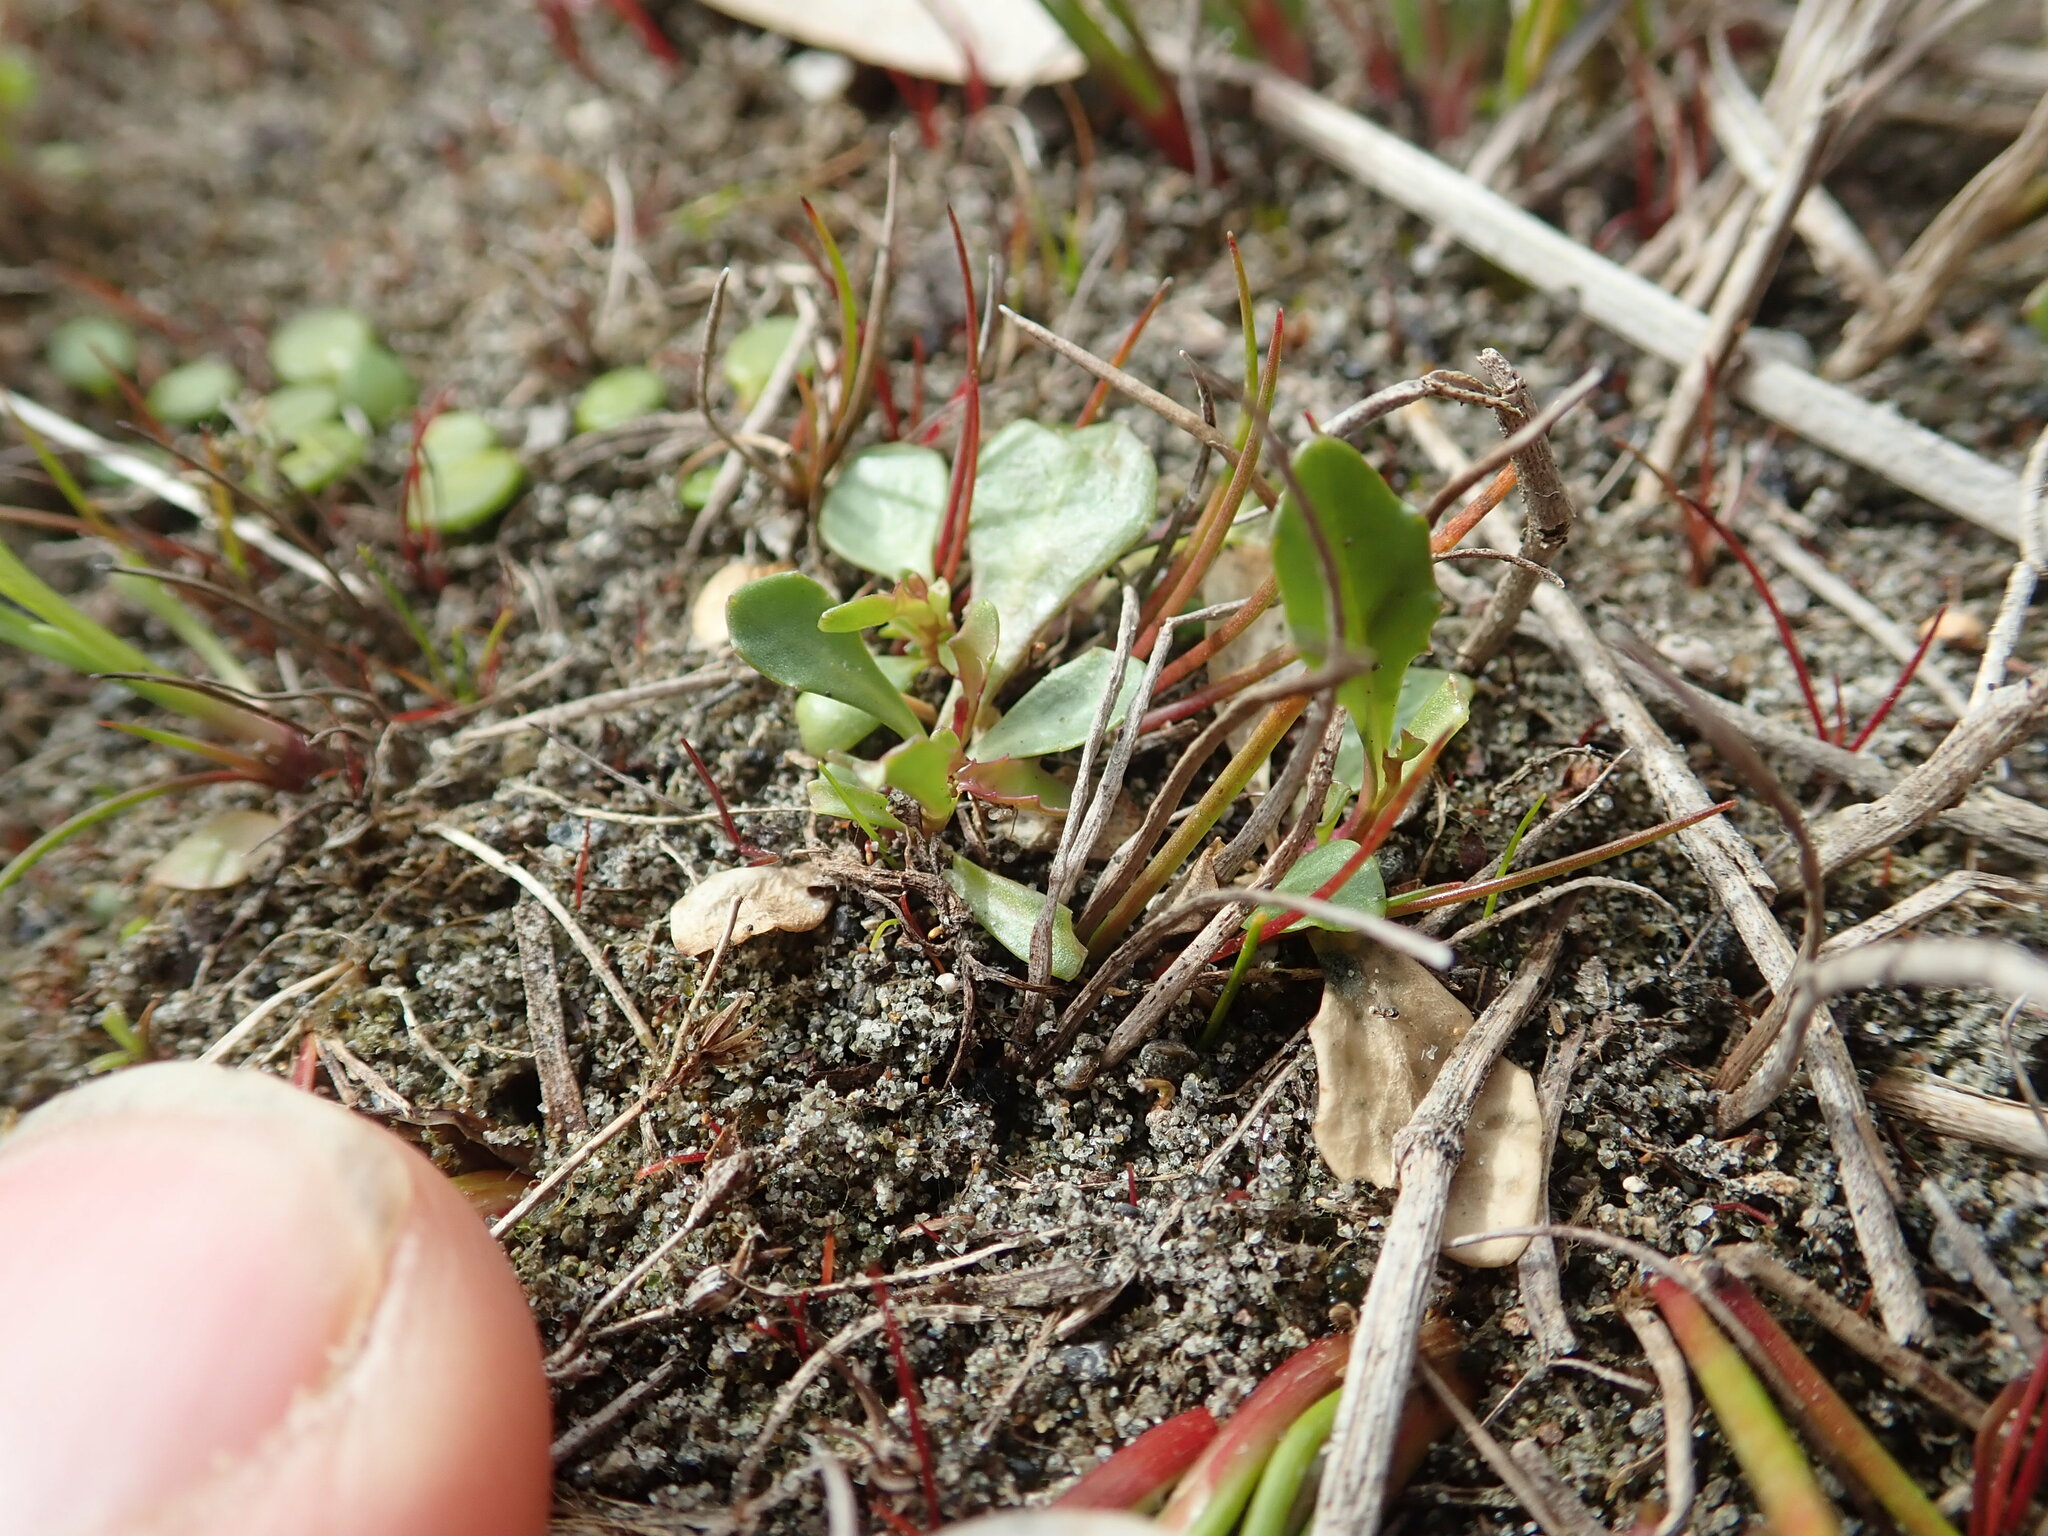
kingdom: Plantae
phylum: Tracheophyta
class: Magnoliopsida
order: Asterales
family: Campanulaceae
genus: Lobelia
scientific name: Lobelia anceps
